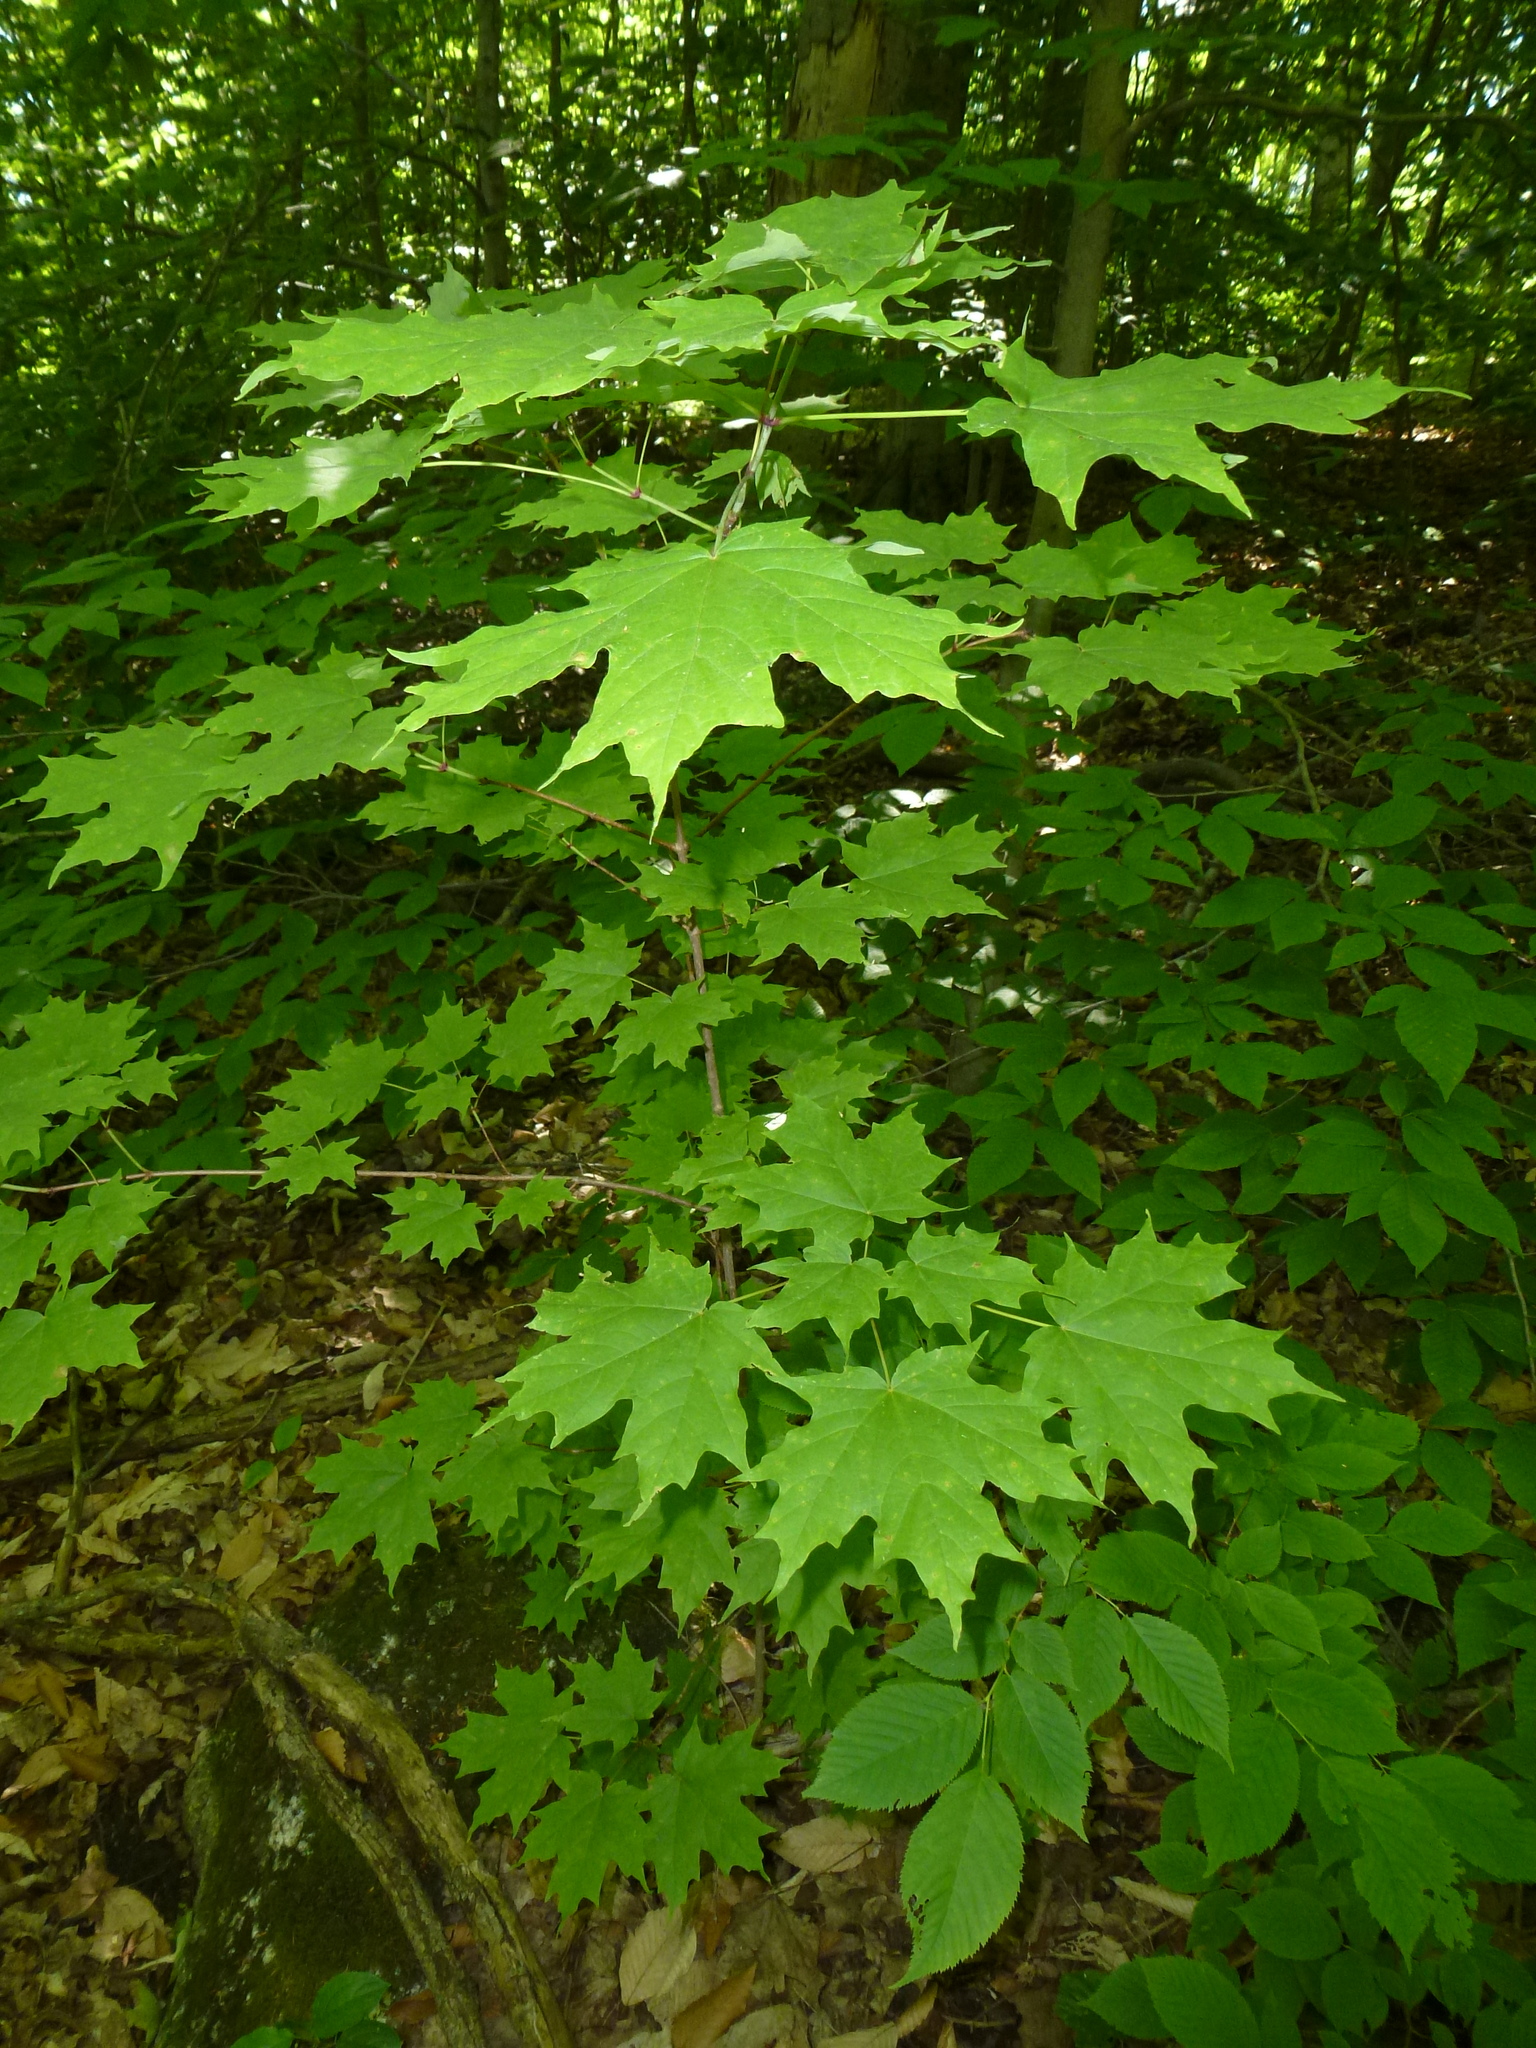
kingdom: Plantae
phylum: Tracheophyta
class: Magnoliopsida
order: Sapindales
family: Sapindaceae
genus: Acer
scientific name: Acer saccharum
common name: Sugar maple
